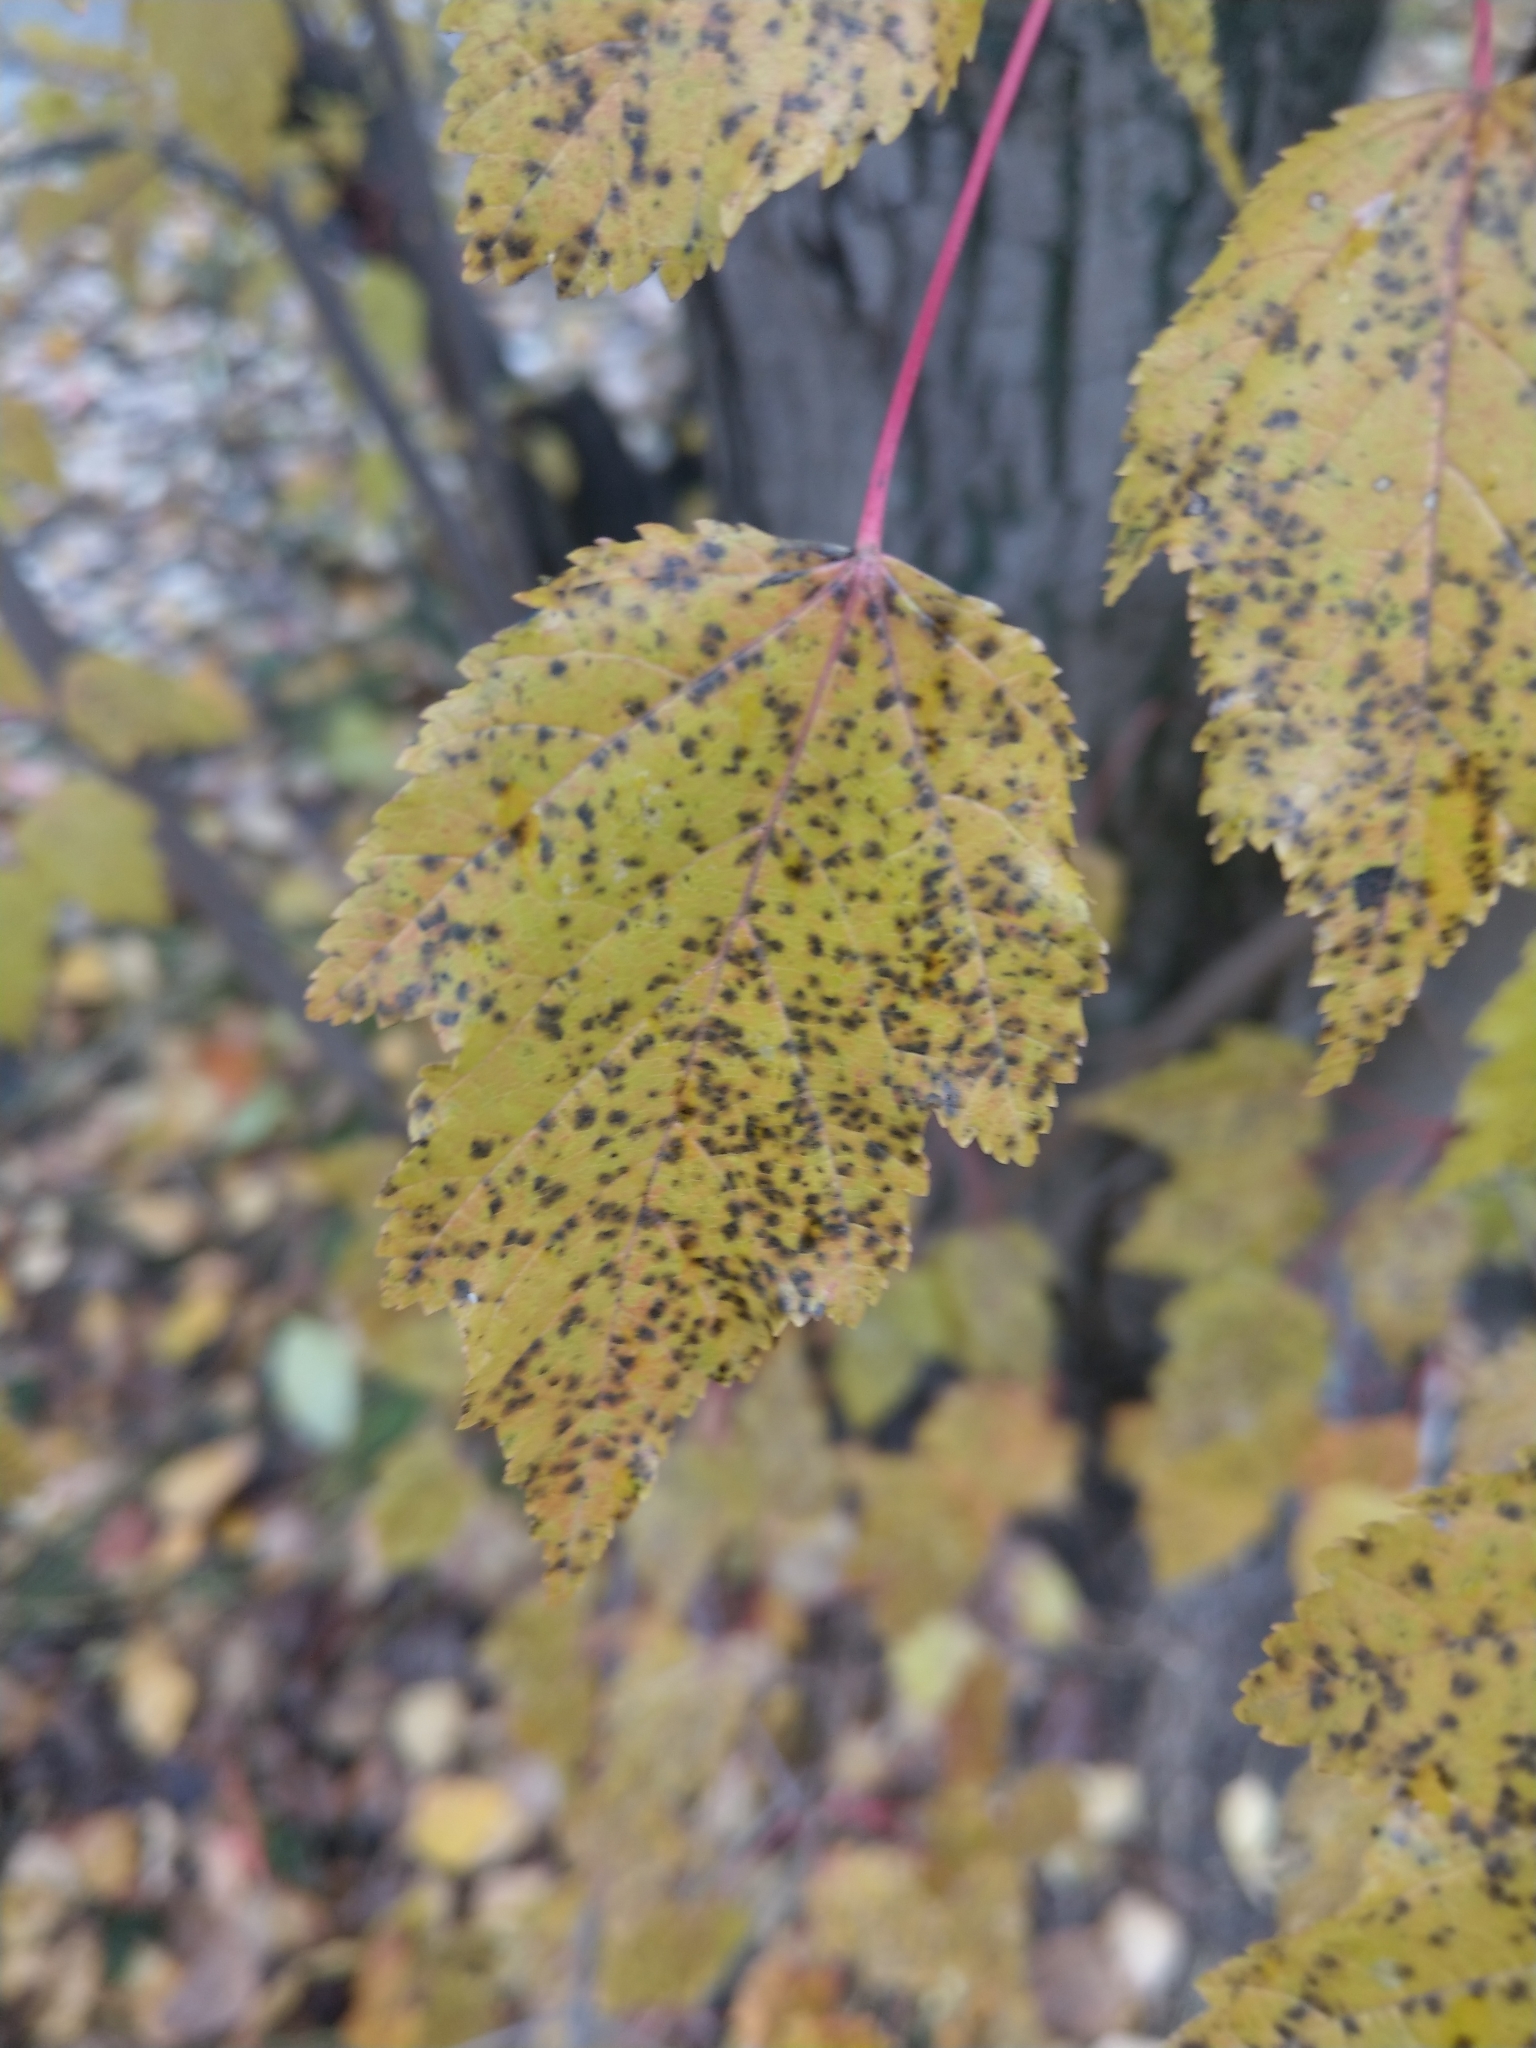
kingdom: Plantae
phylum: Tracheophyta
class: Magnoliopsida
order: Sapindales
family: Sapindaceae
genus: Acer
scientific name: Acer tataricum
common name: Tartar maple
